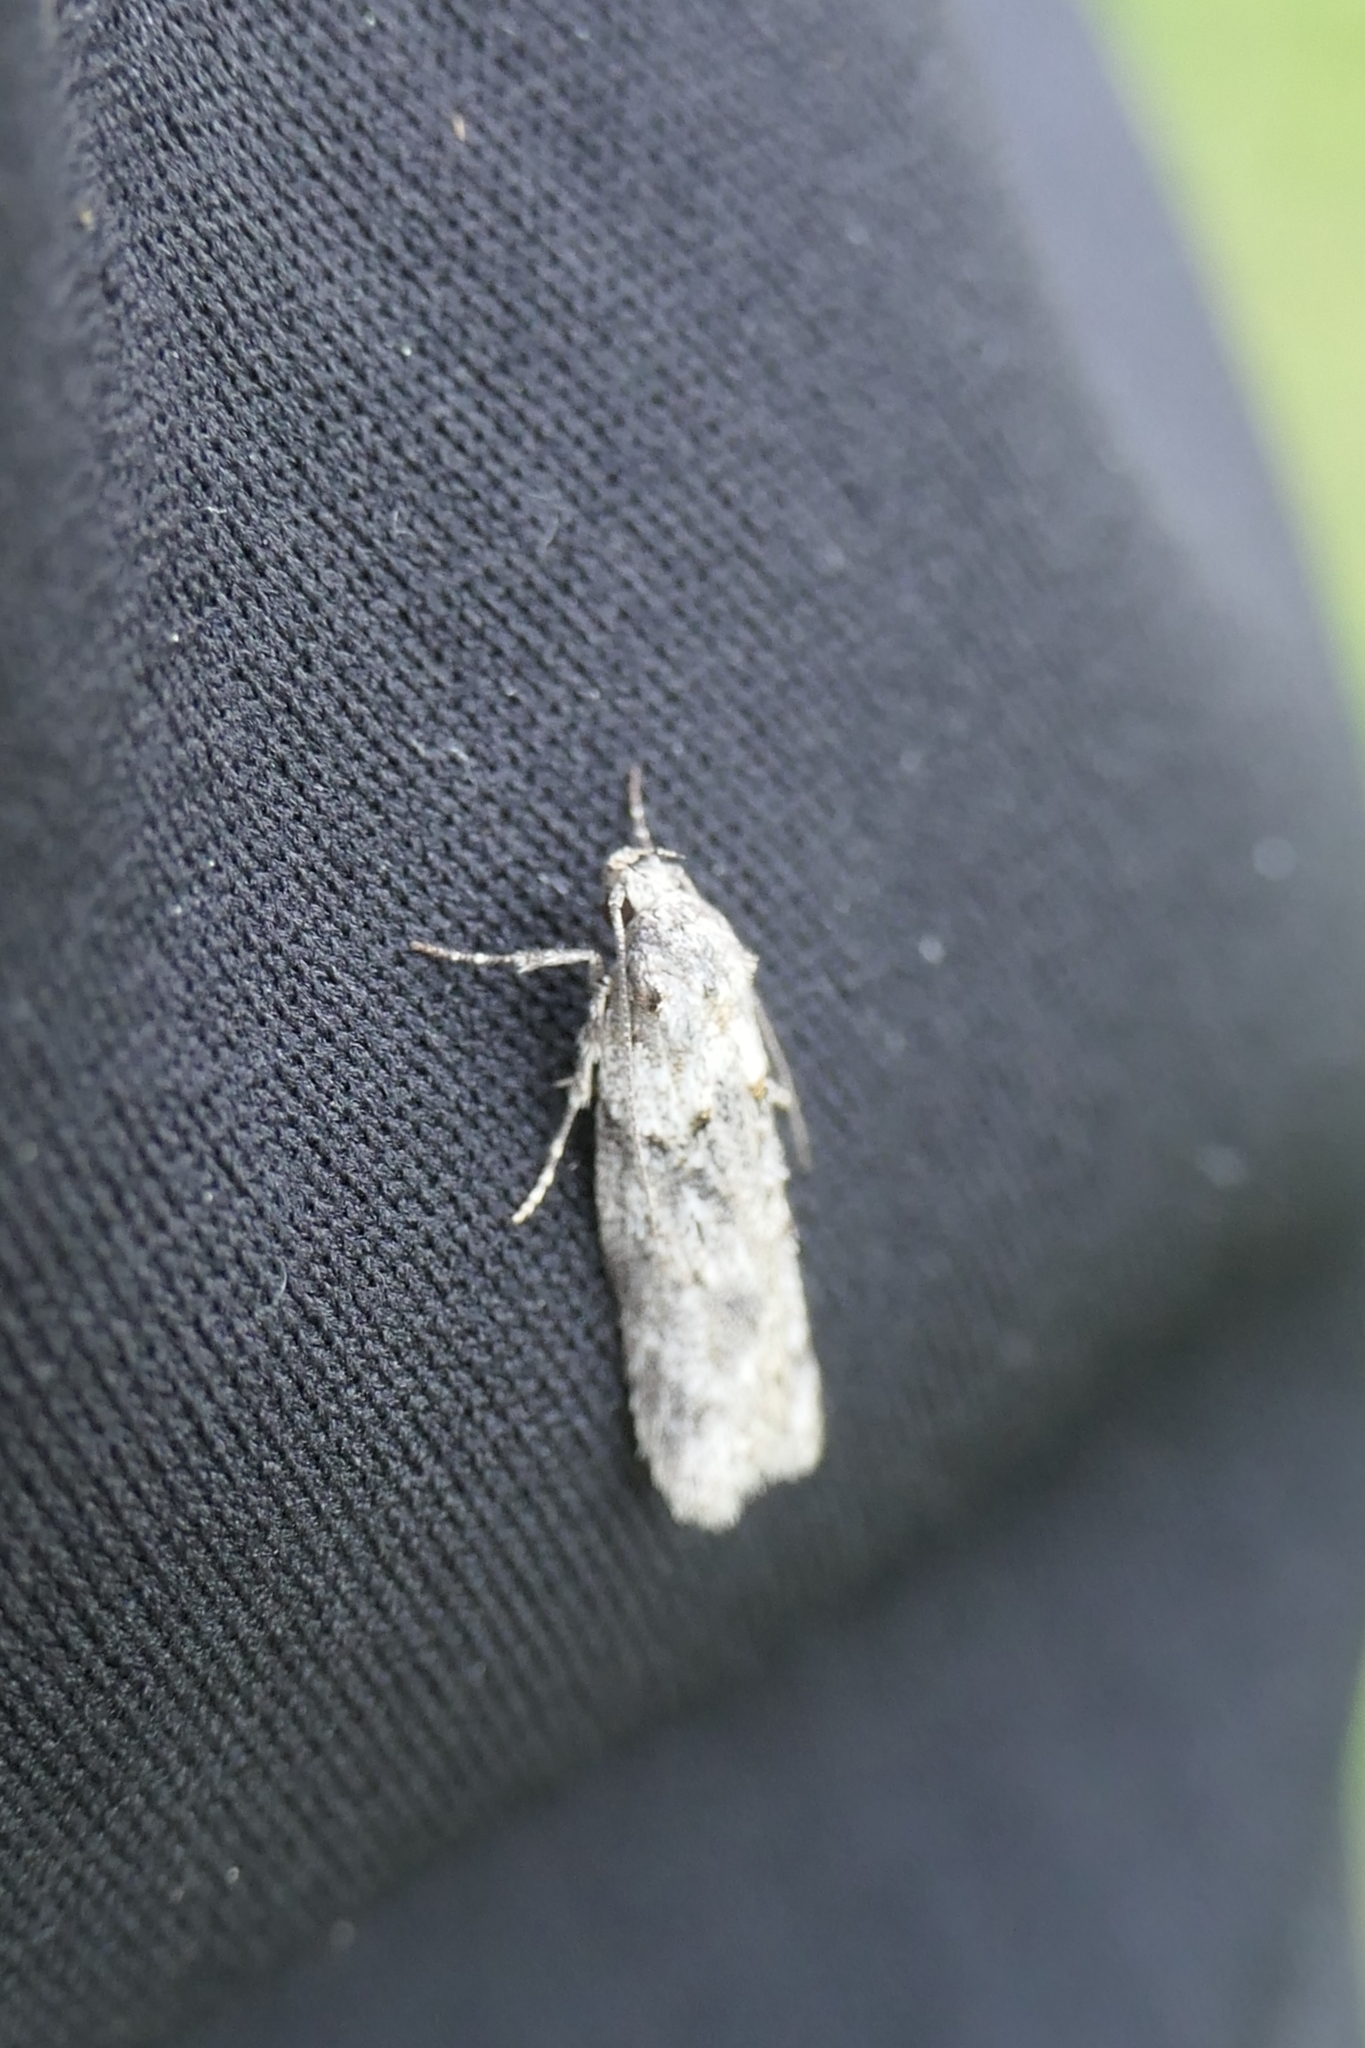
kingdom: Animalia
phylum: Arthropoda
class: Insecta
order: Lepidoptera
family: Oecophoridae
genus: Izatha
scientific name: Izatha convulsella
